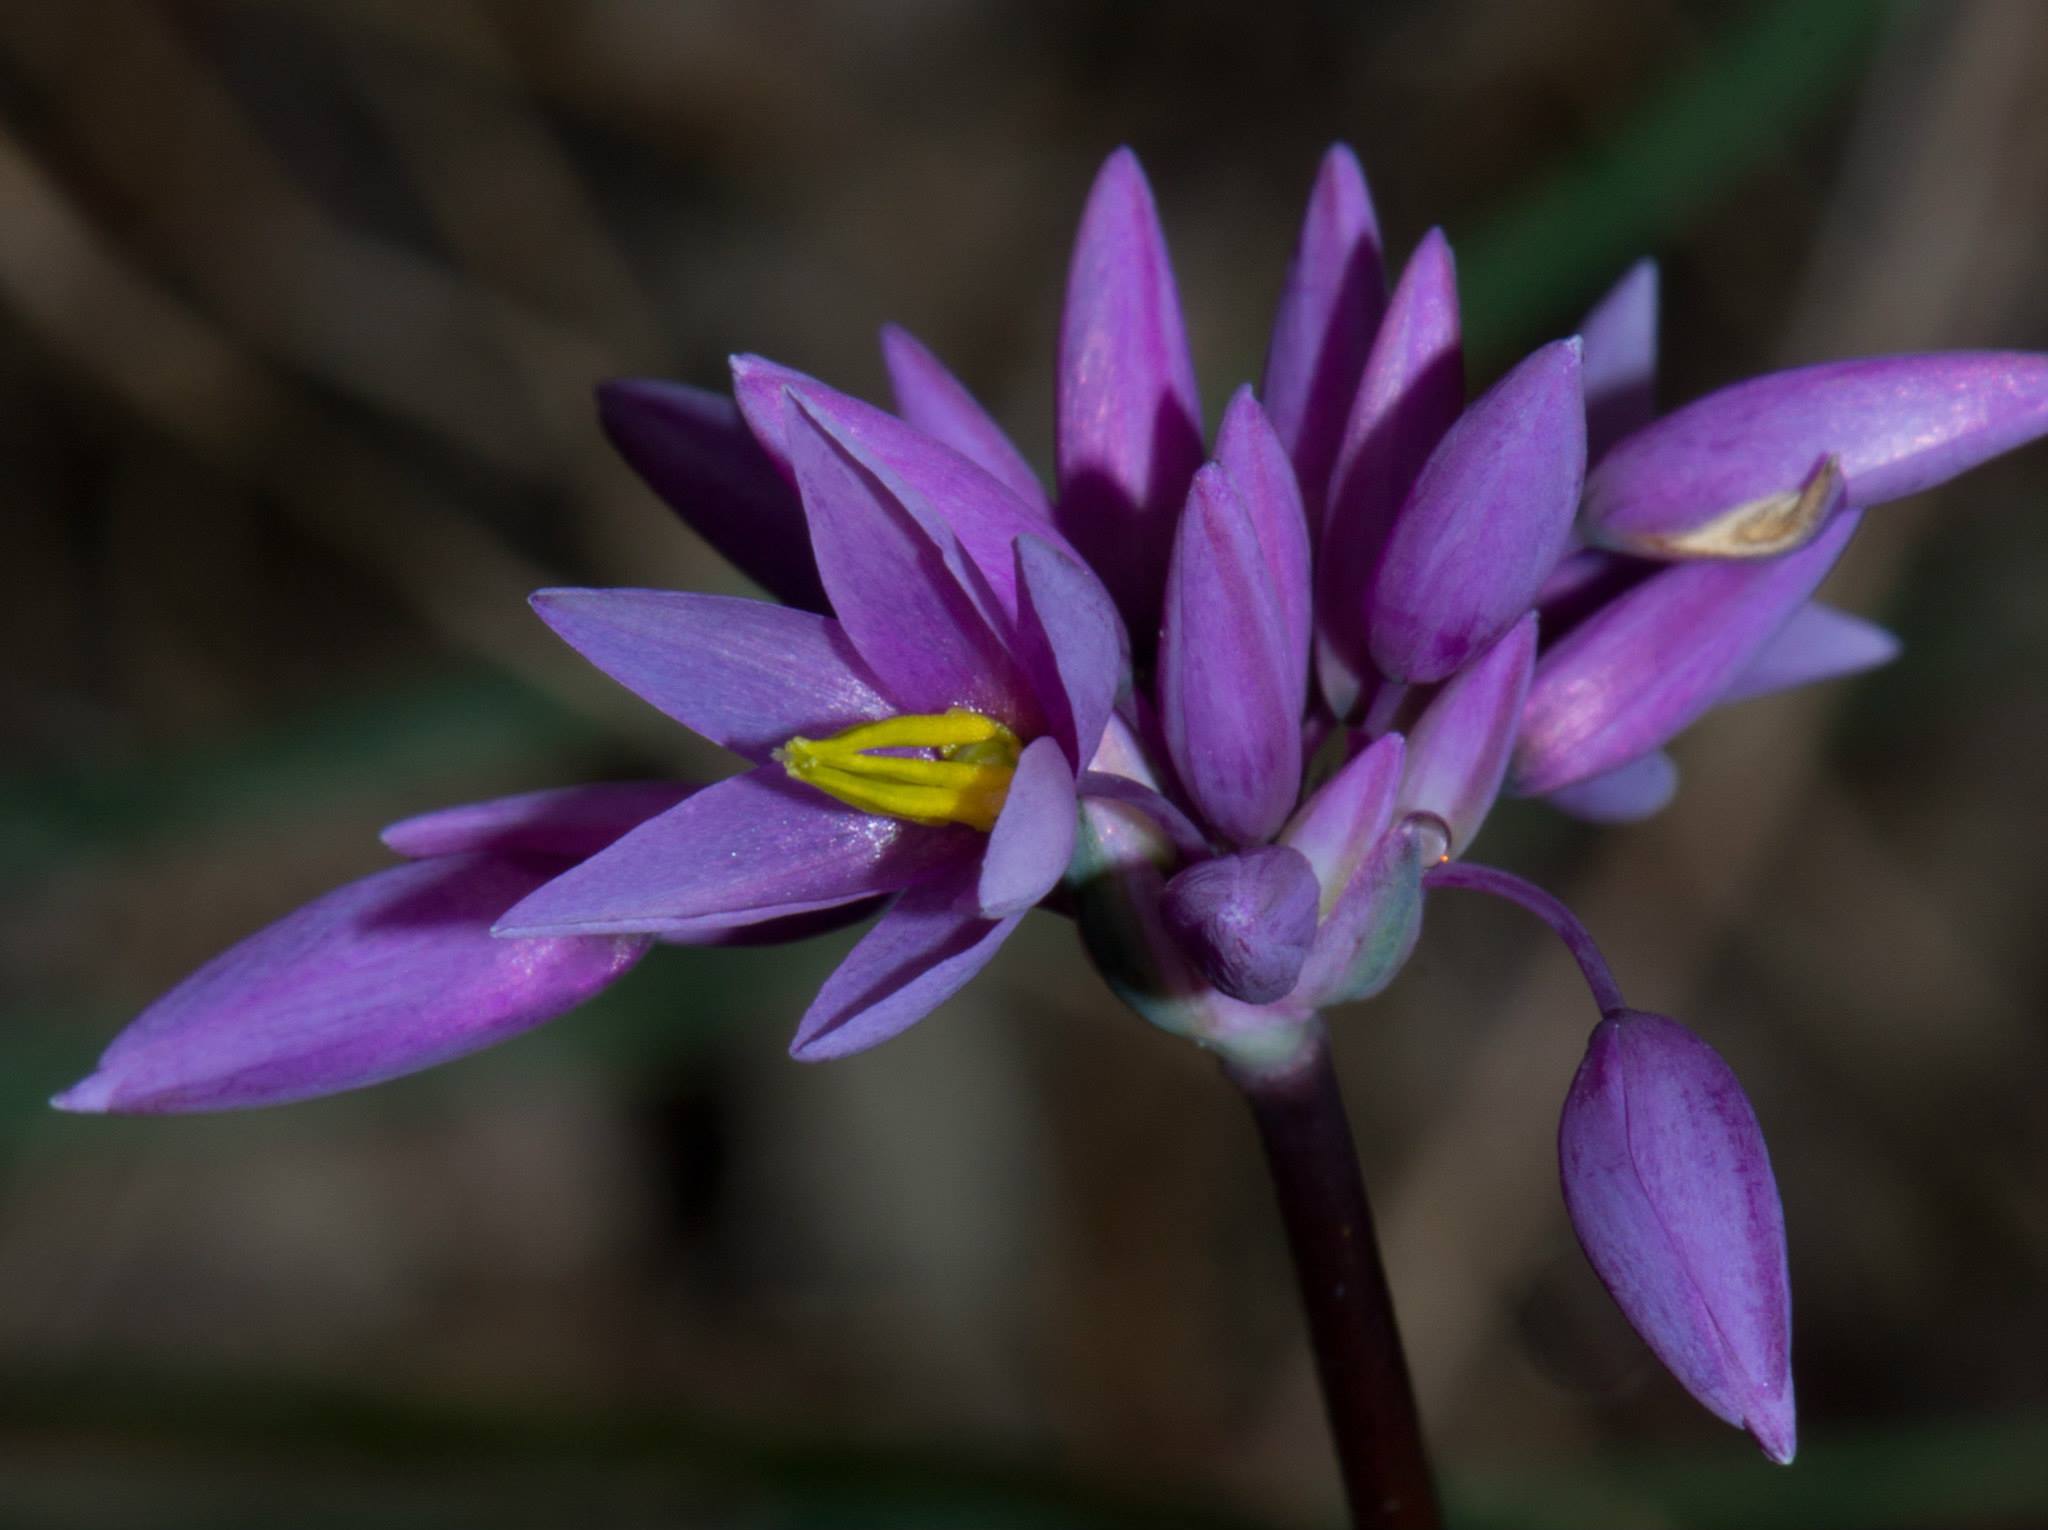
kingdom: Plantae
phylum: Tracheophyta
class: Liliopsida
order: Asparagales
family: Asparagaceae
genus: Sowerbaea
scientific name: Sowerbaea laxiflora
